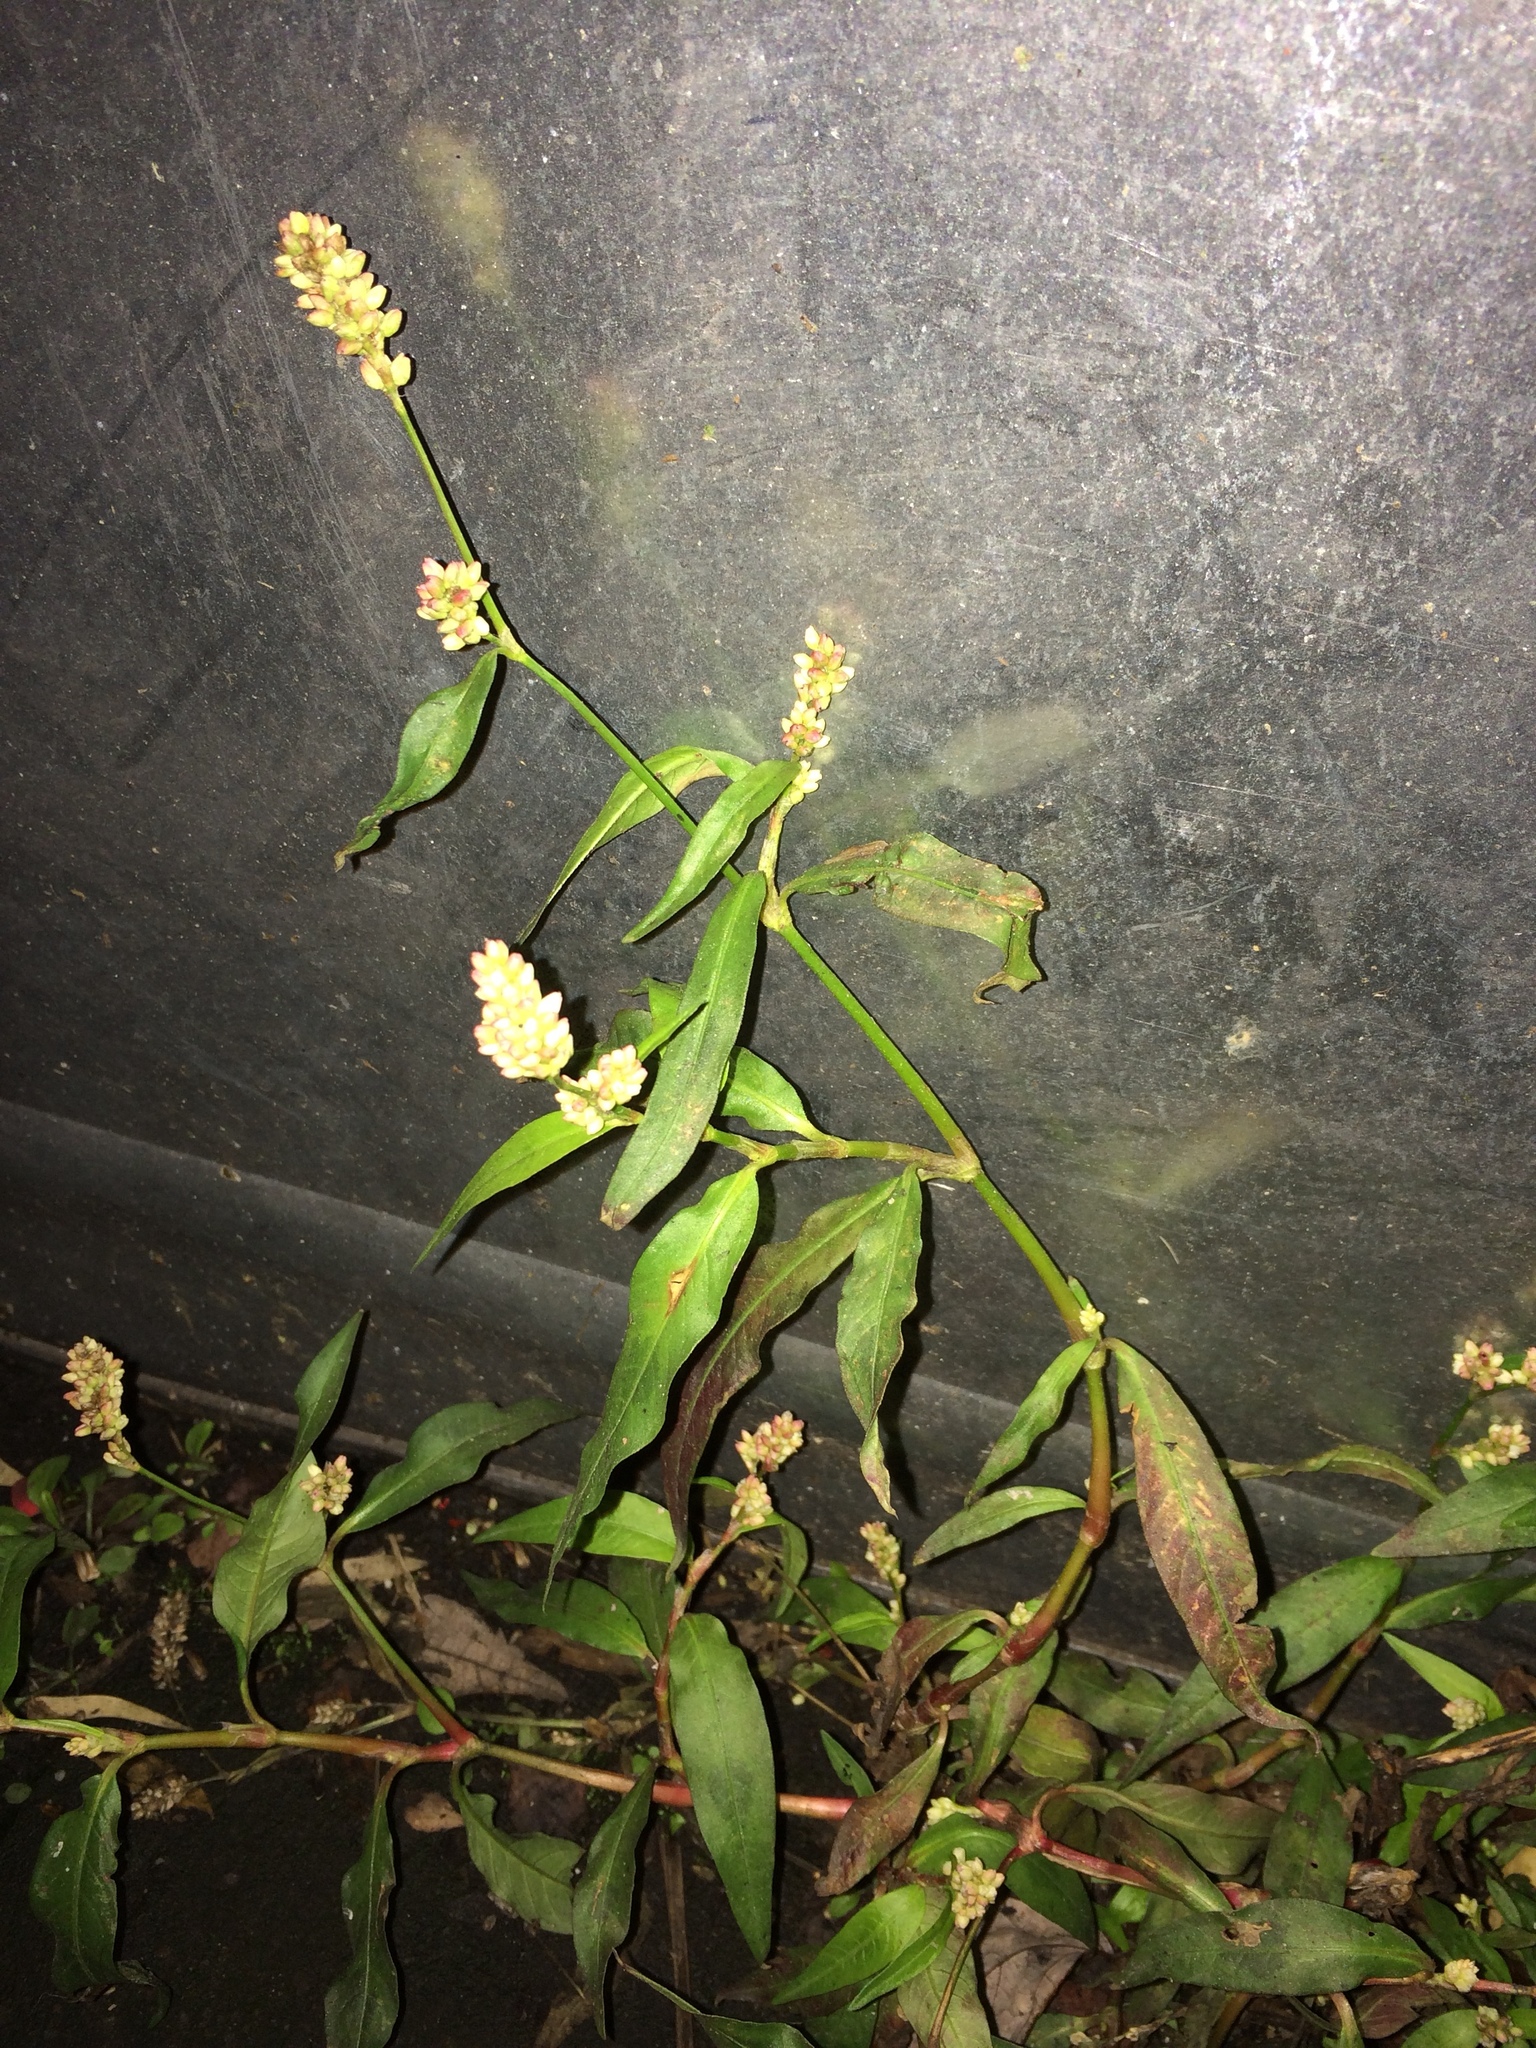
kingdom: Plantae
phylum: Tracheophyta
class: Magnoliopsida
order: Caryophyllales
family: Polygonaceae
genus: Persicaria
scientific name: Persicaria maculosa
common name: Redshank
